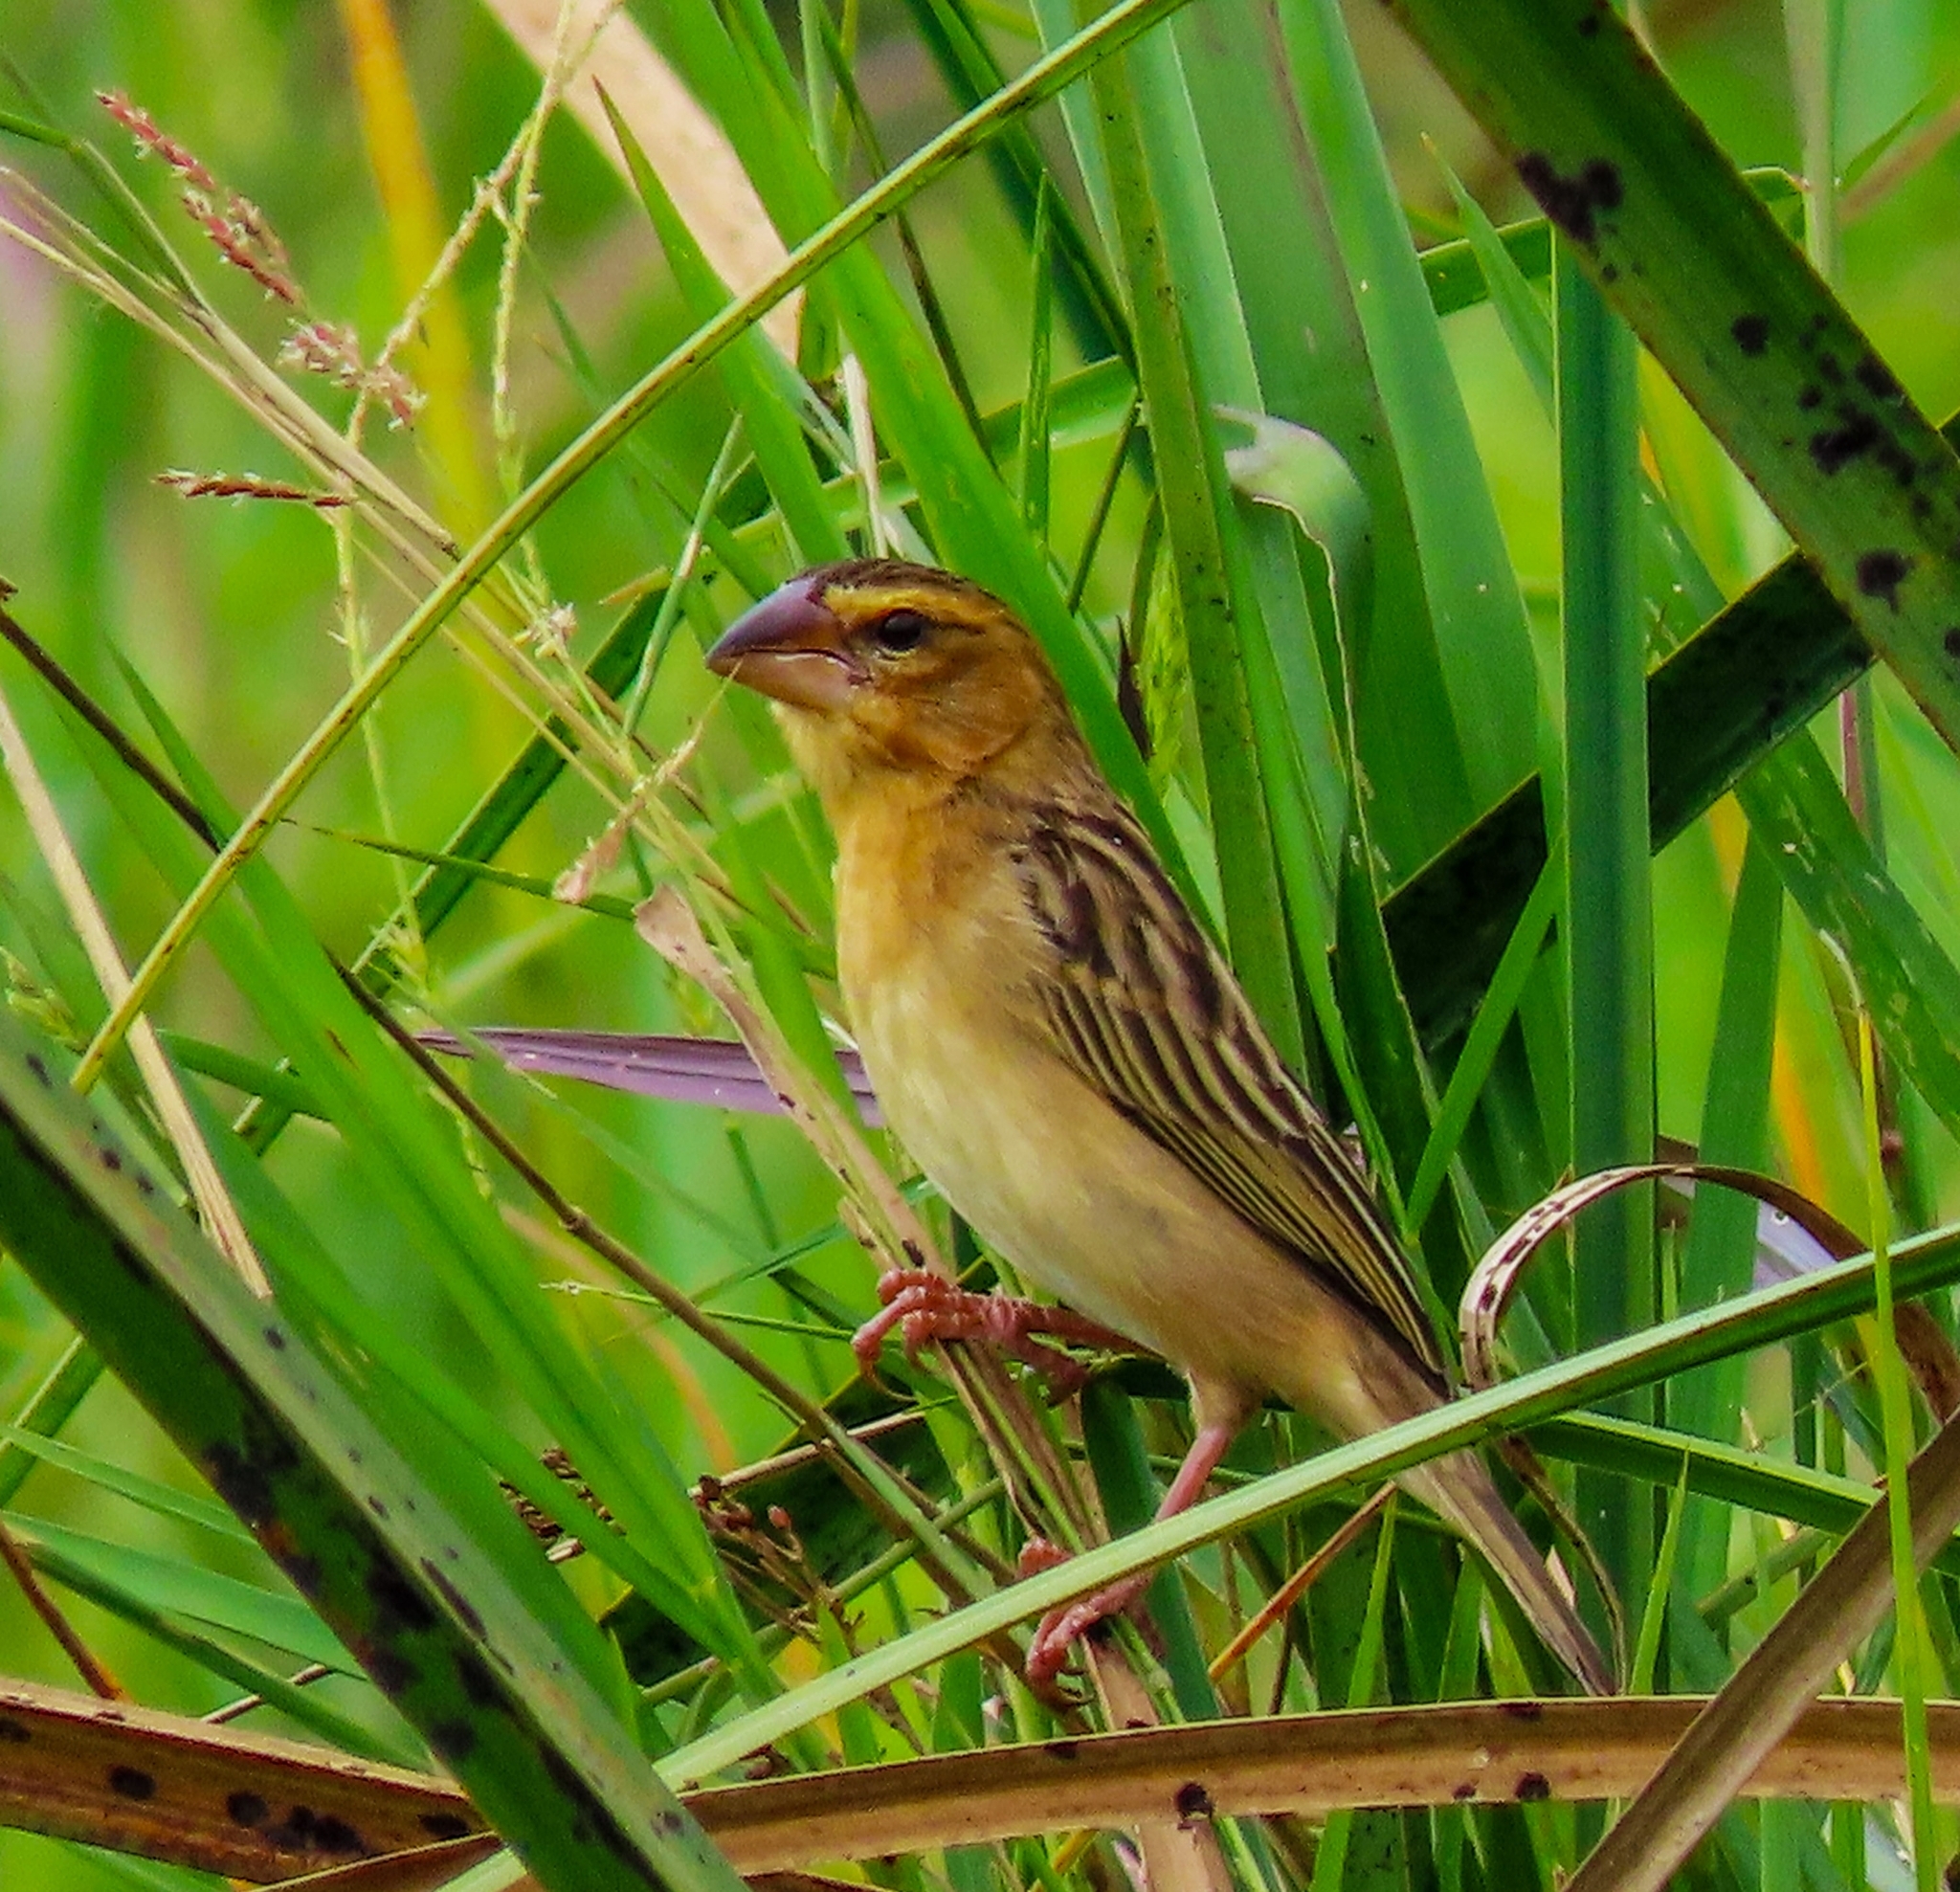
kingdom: Animalia
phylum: Chordata
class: Aves
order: Passeriformes
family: Ploceidae
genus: Ploceus
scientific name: Ploceus hypoxanthus
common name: Asian golden weaver
